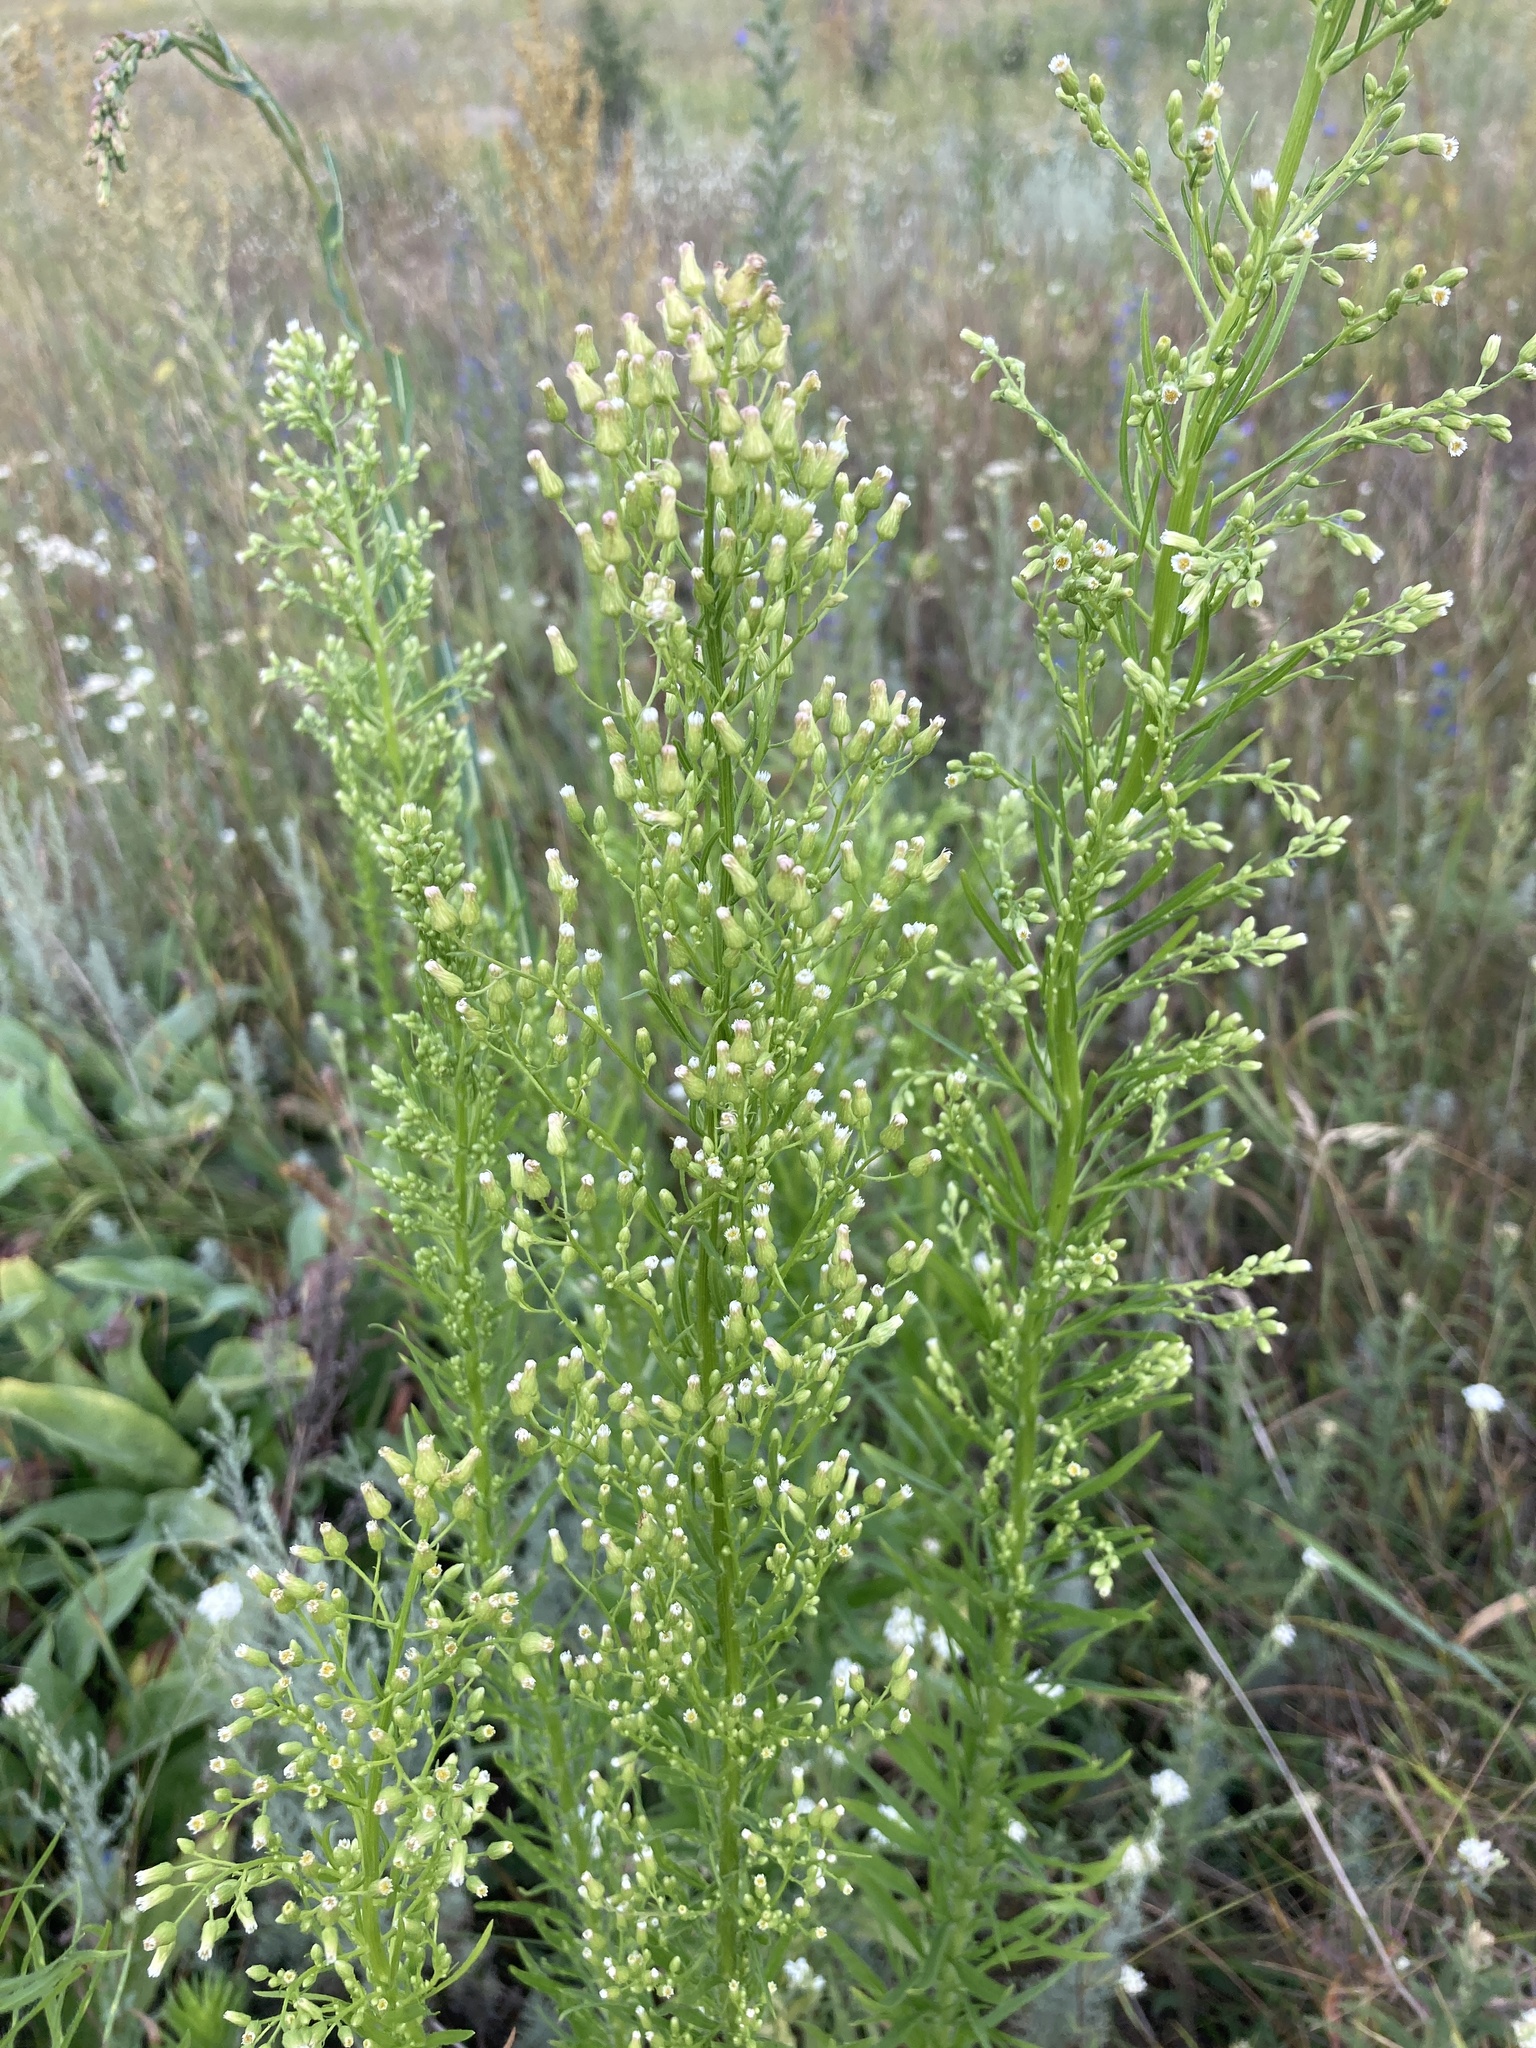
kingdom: Plantae
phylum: Tracheophyta
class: Magnoliopsida
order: Asterales
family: Asteraceae
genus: Erigeron
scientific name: Erigeron canadensis
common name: Canadian fleabane
